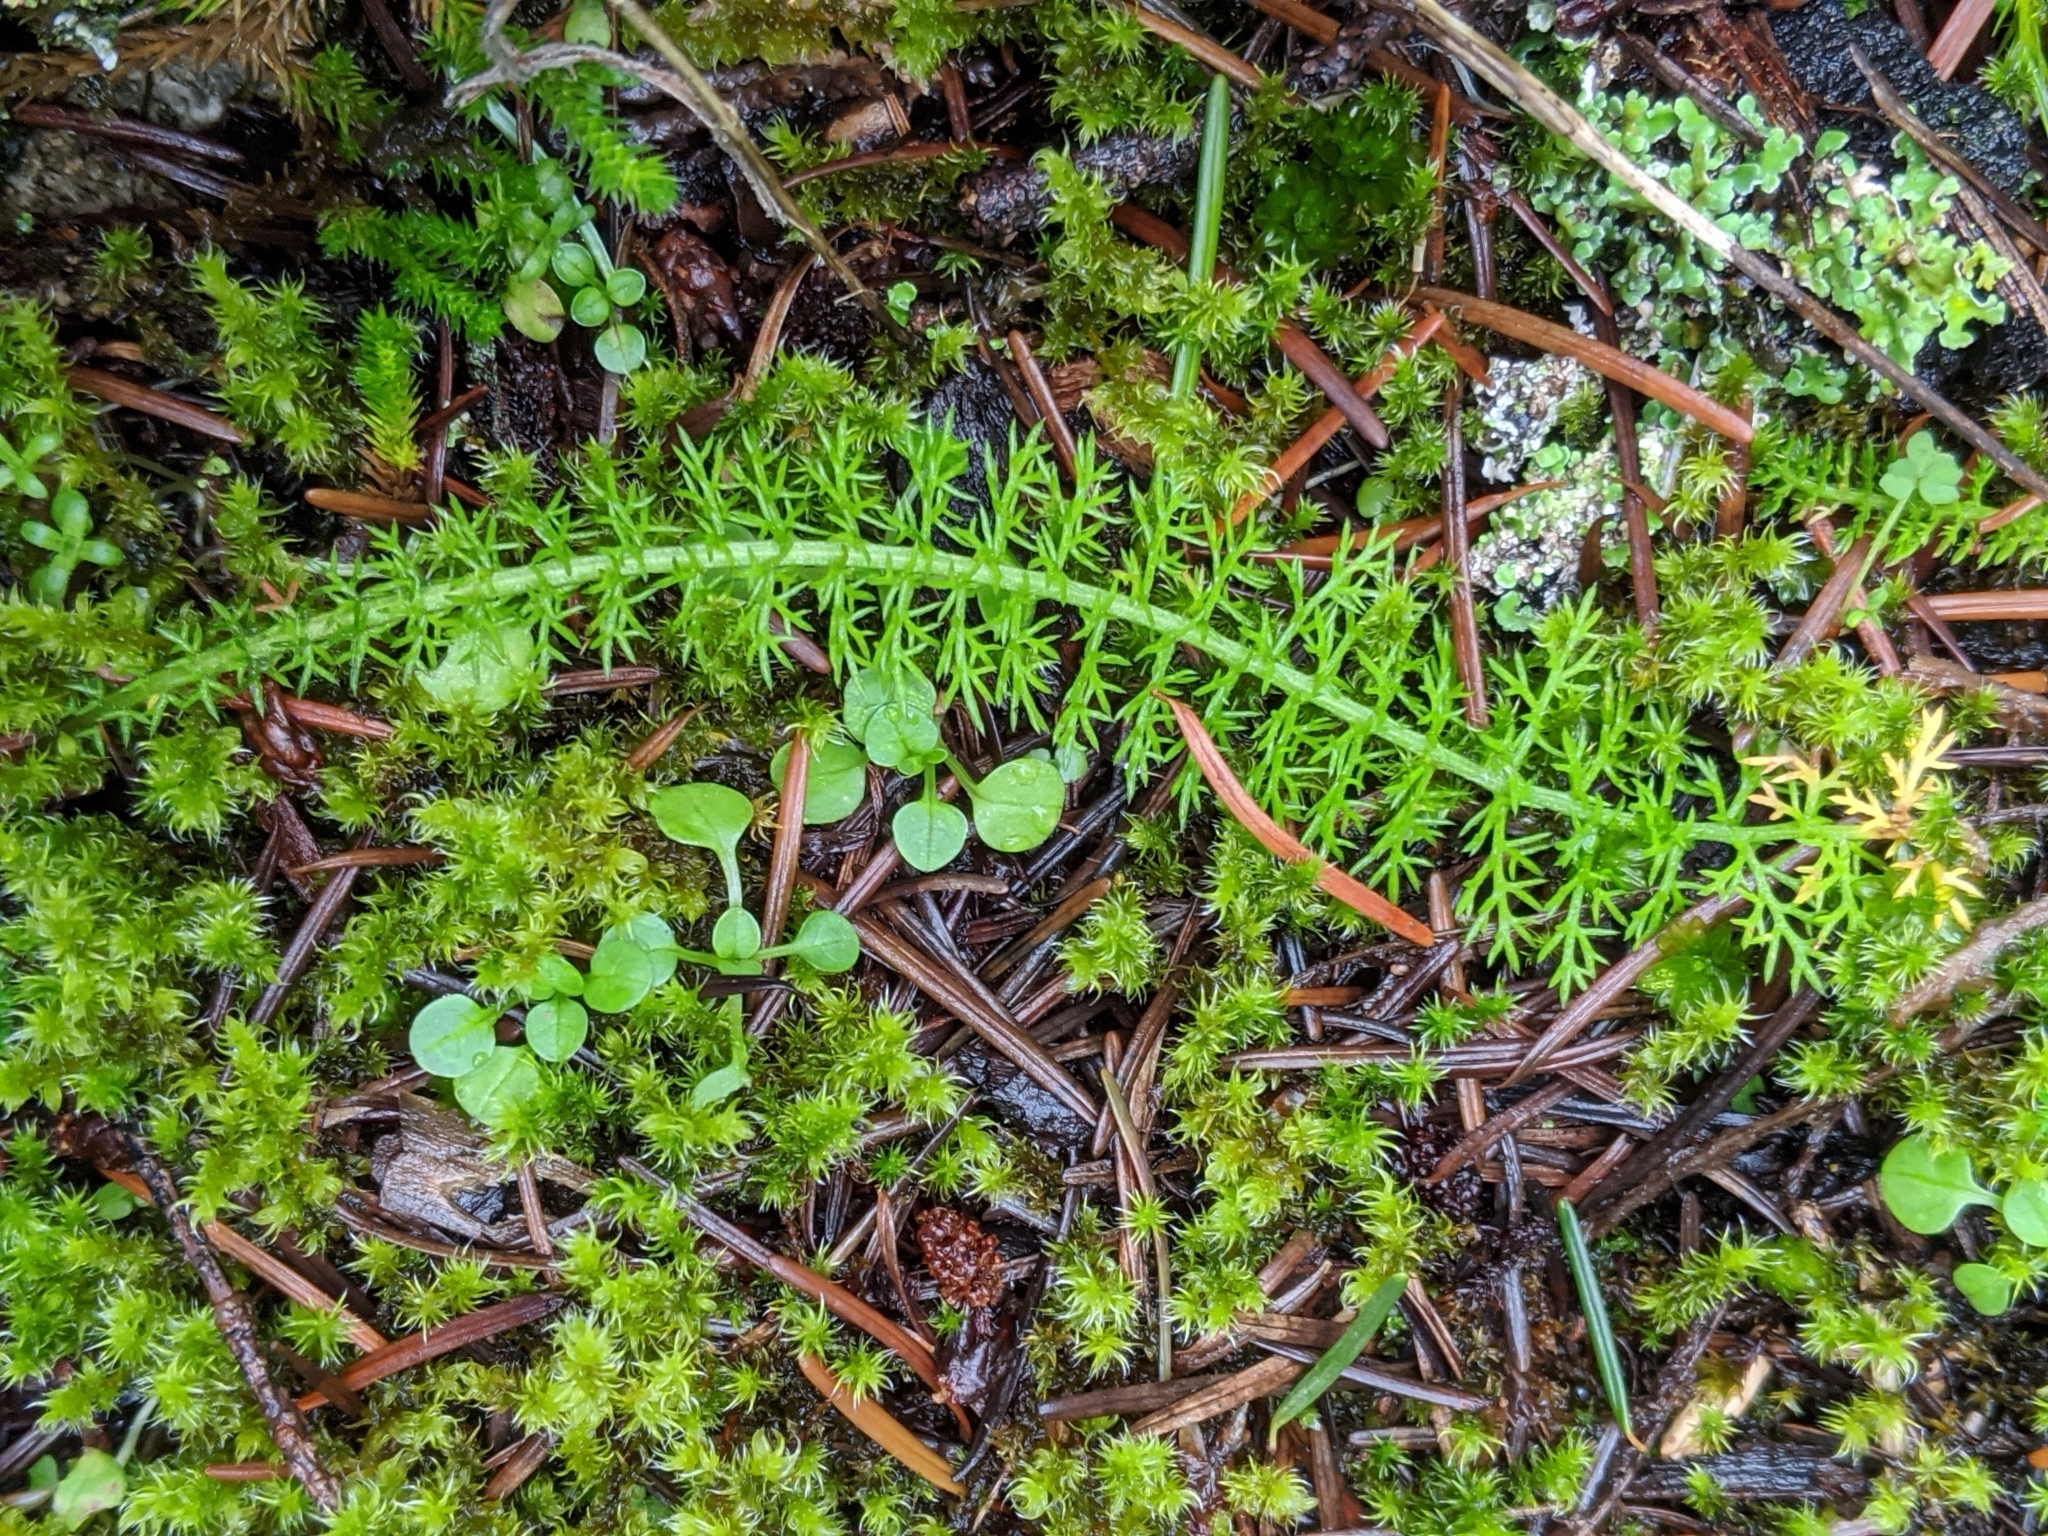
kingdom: Plantae
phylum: Tracheophyta
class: Magnoliopsida
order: Asterales
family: Asteraceae
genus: Achillea
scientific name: Achillea millefolium
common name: Yarrow
